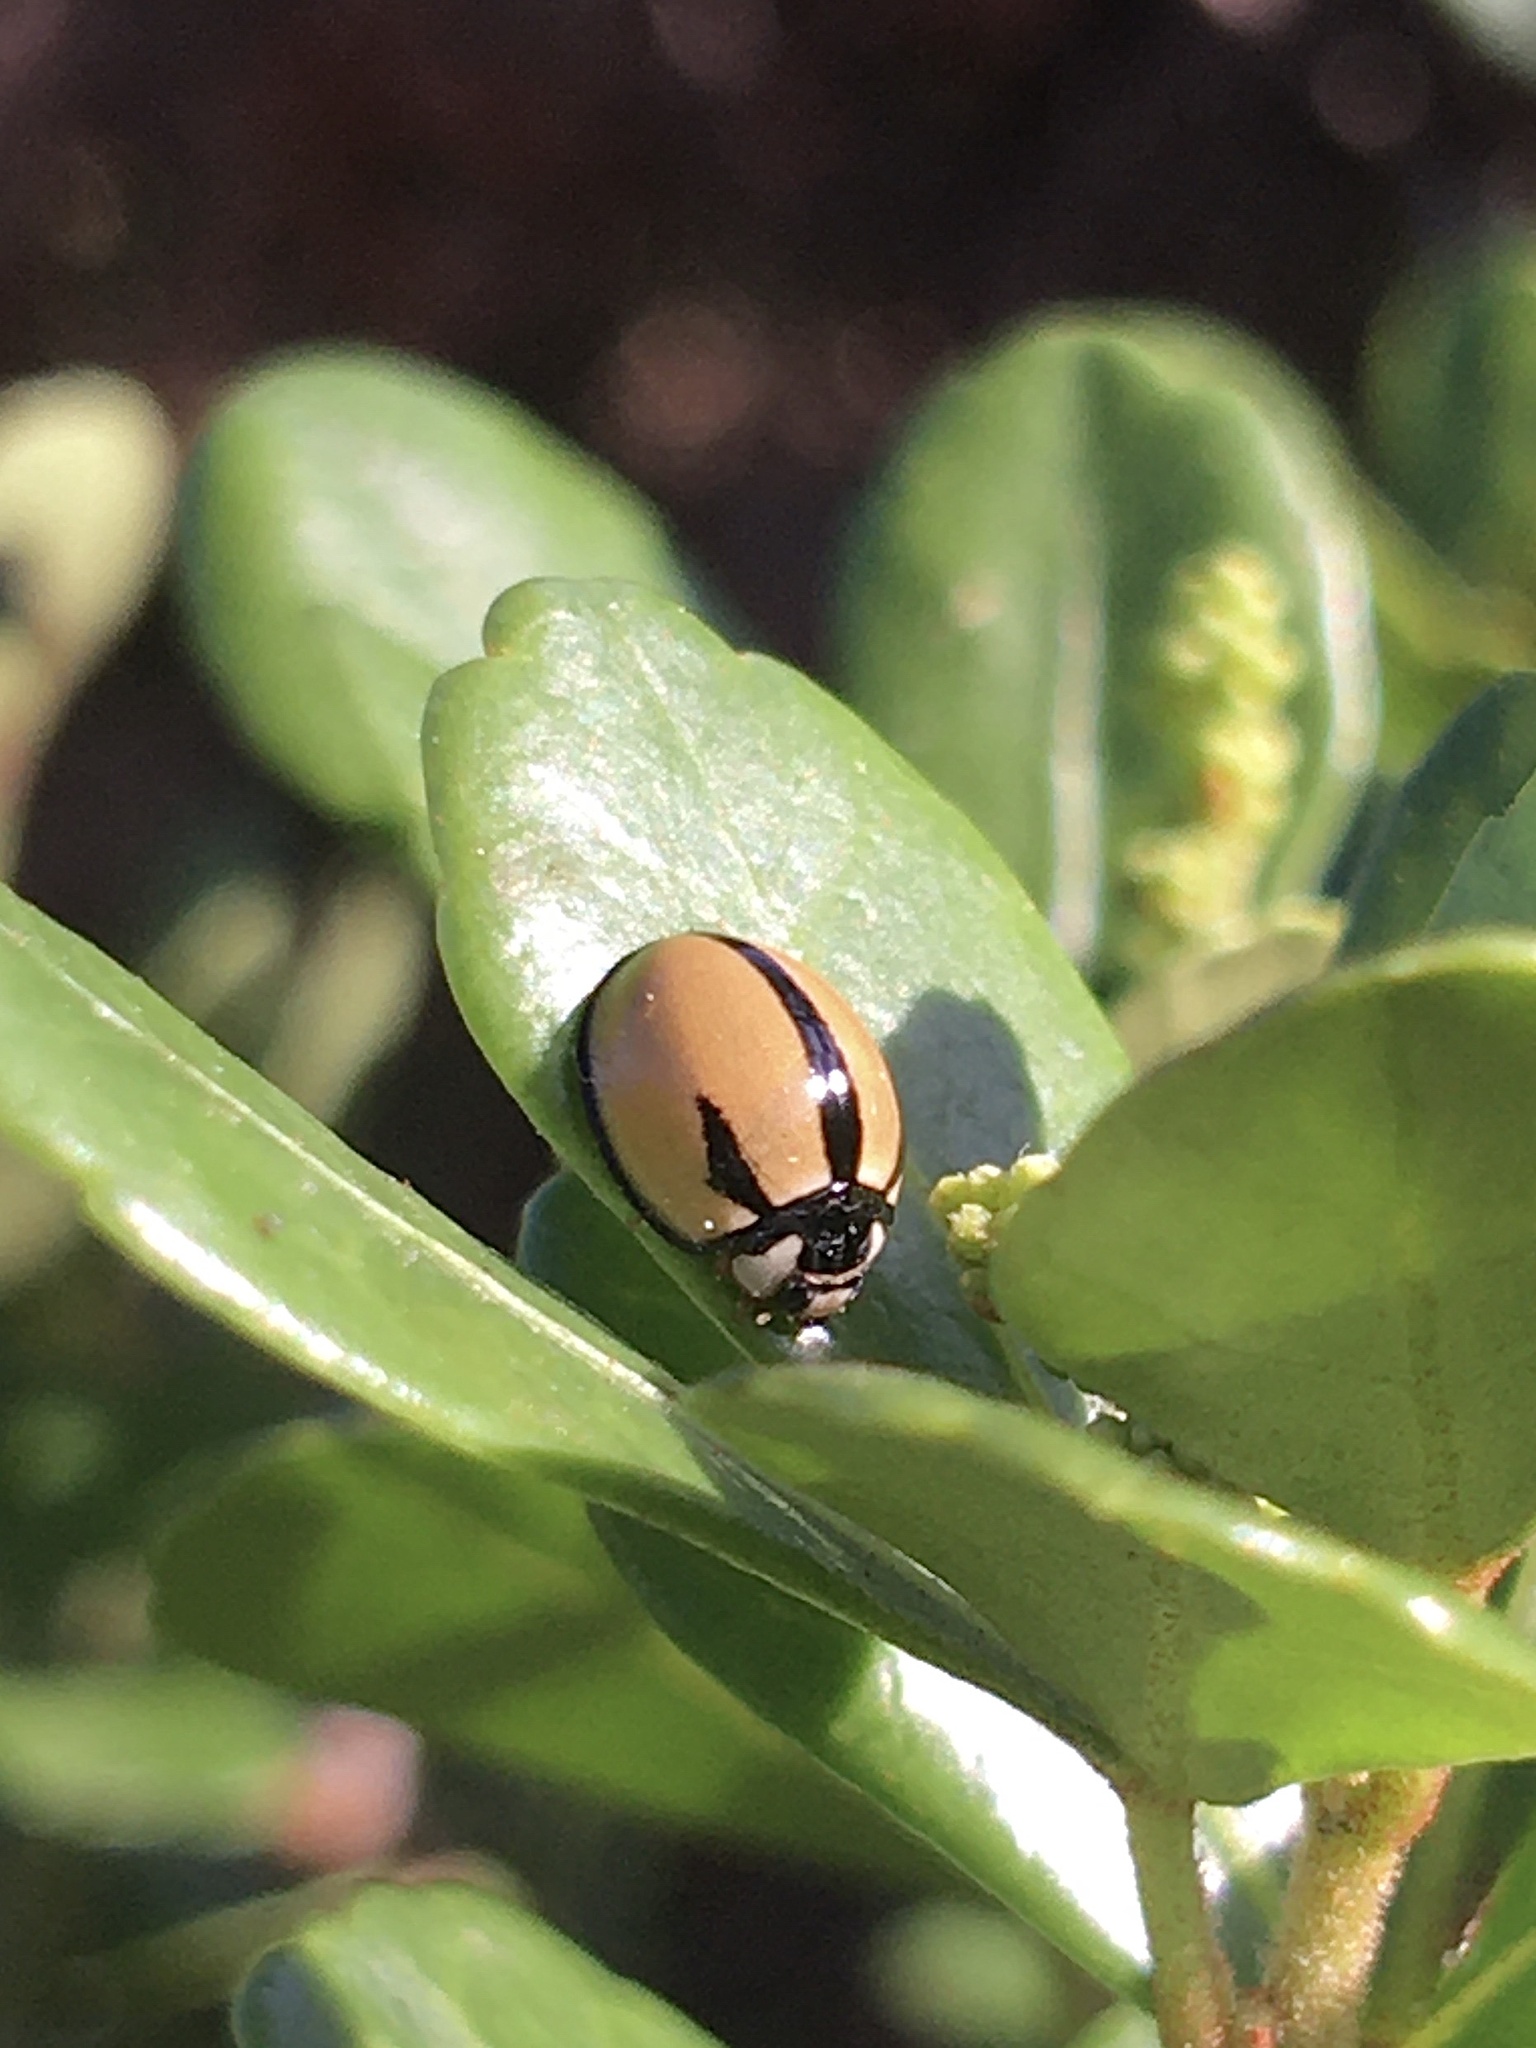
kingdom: Animalia
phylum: Arthropoda
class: Insecta
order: Coleoptera
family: Coccinellidae
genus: Cheilomenes
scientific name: Cheilomenes propinqua
